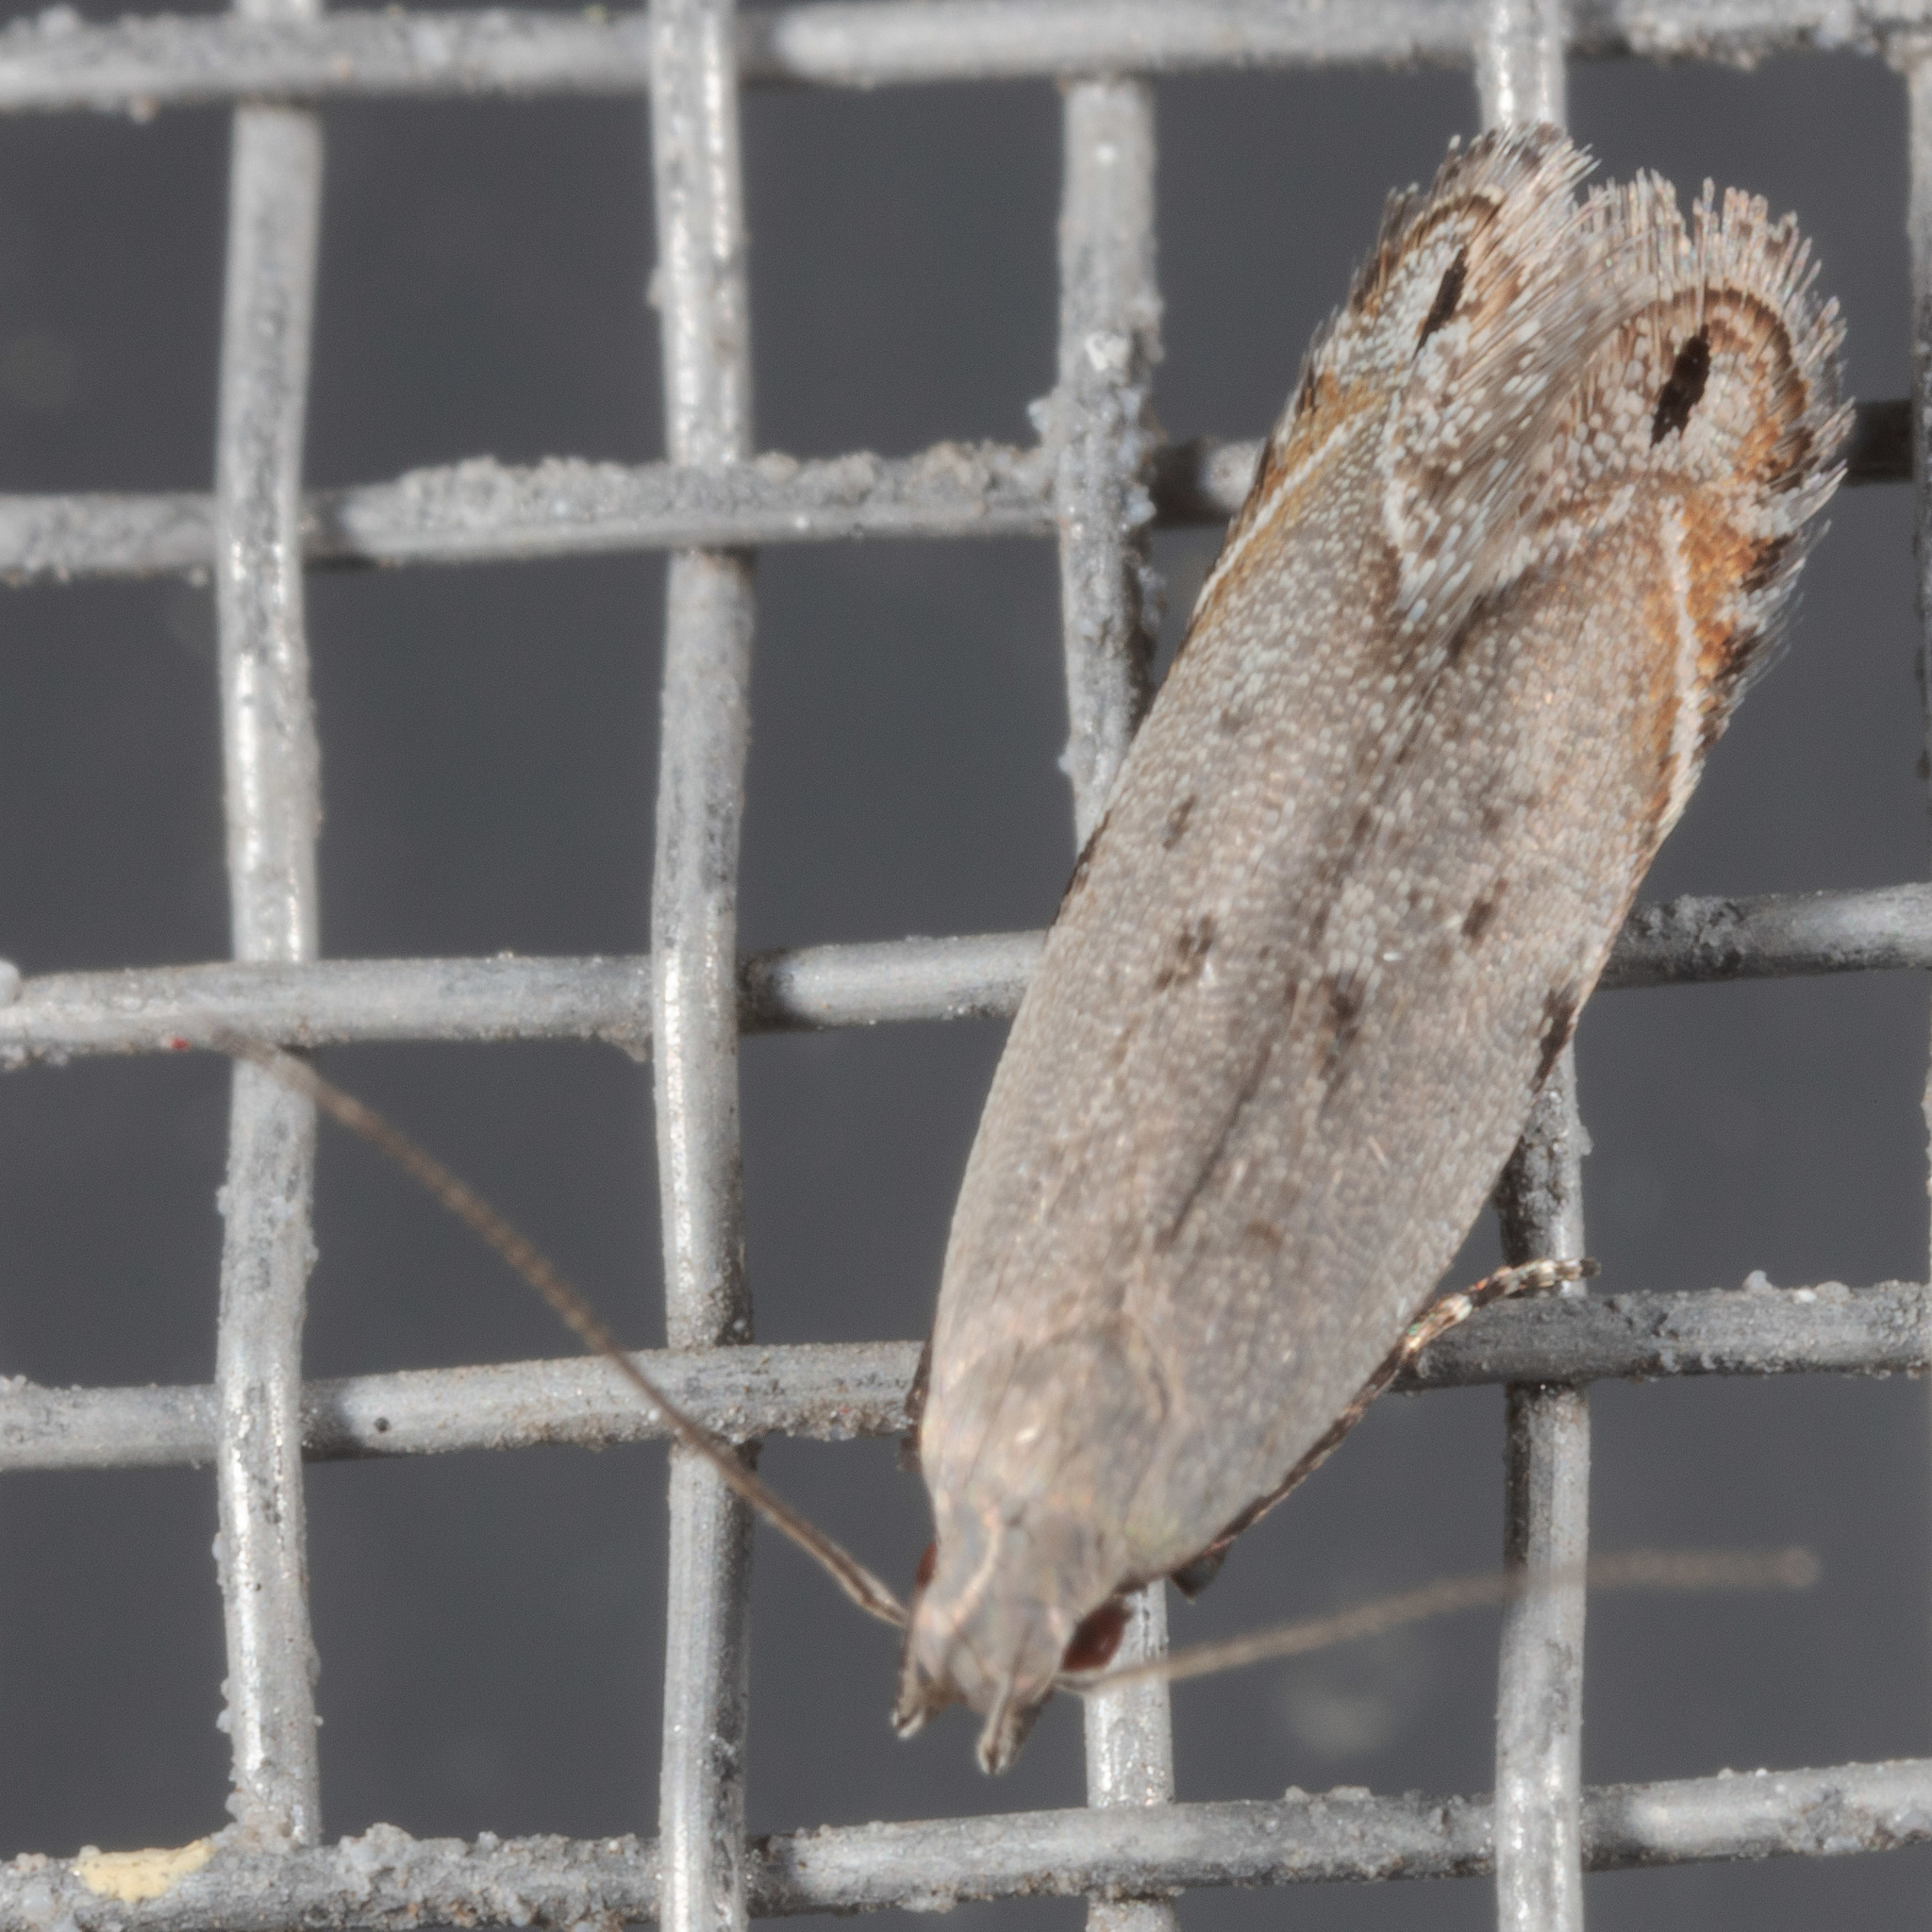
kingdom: Animalia
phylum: Arthropoda
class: Insecta
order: Lepidoptera
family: Gelechiidae
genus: Battaristis
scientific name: Battaristis concinnusella
